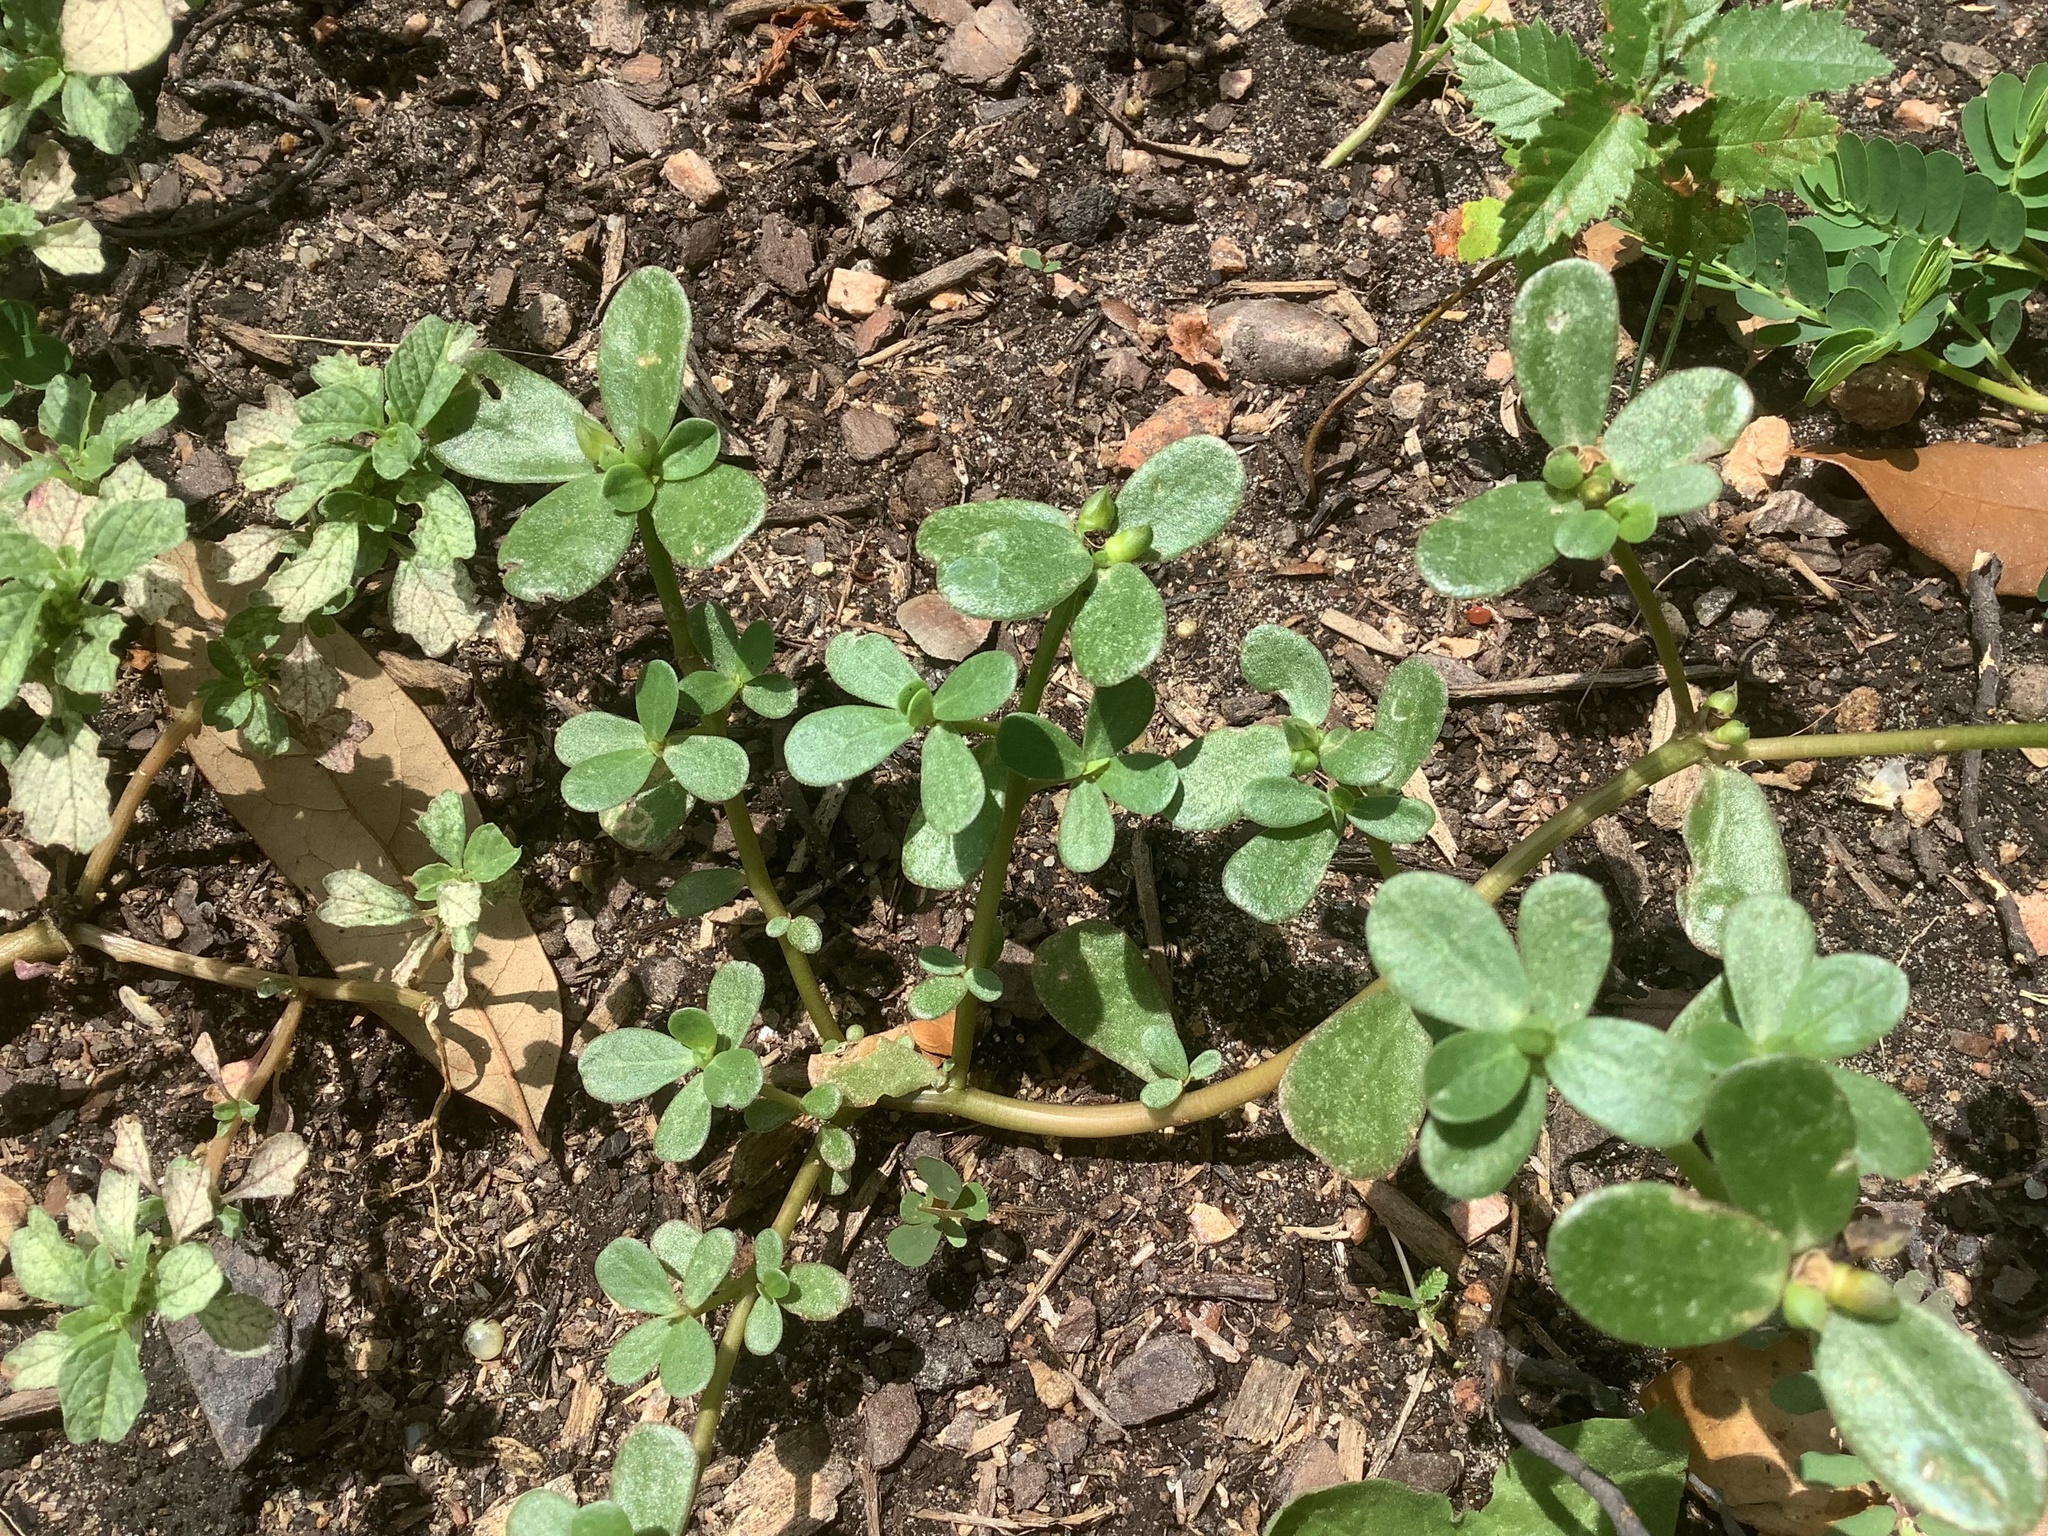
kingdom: Plantae
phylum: Tracheophyta
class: Magnoliopsida
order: Caryophyllales
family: Portulacaceae
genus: Portulaca
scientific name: Portulaca oleracea
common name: Common purslane
